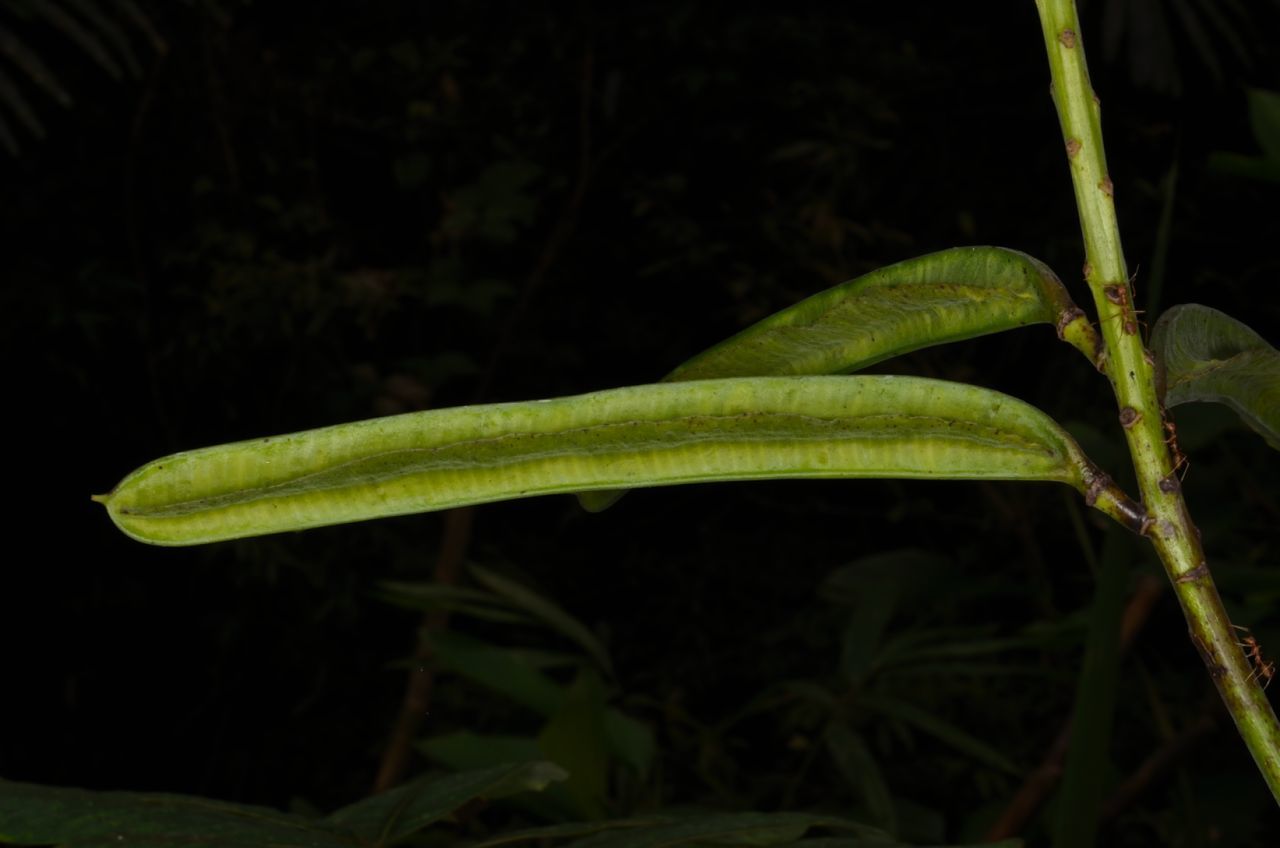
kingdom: Plantae
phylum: Tracheophyta
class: Magnoliopsida
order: Fabales
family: Fabaceae
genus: Senna
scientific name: Senna alata
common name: Emperor's candlesticks
